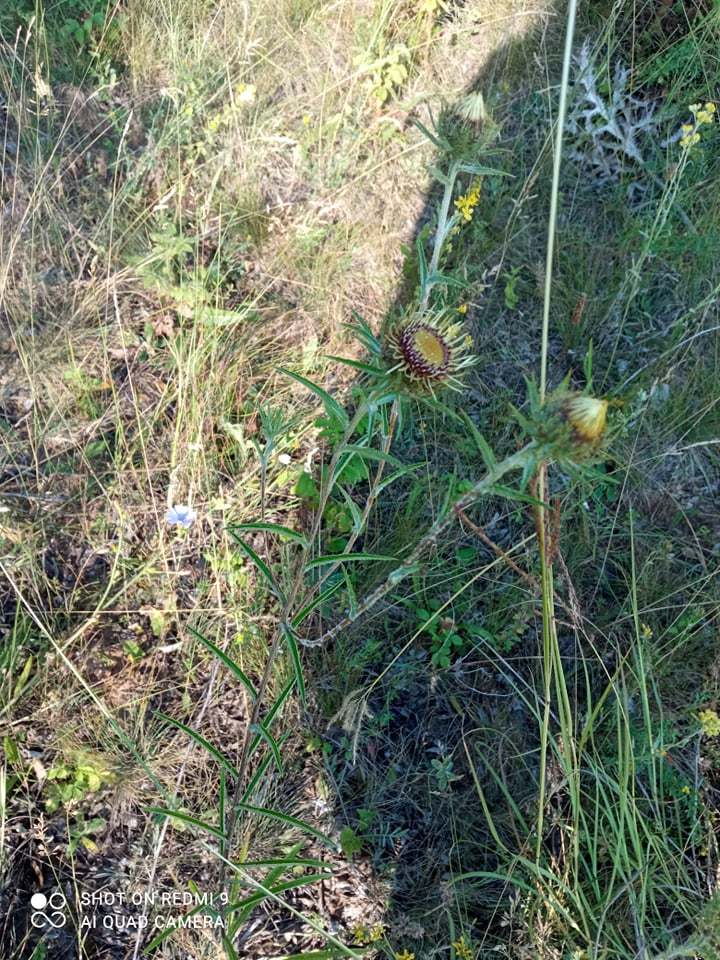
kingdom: Plantae
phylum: Tracheophyta
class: Magnoliopsida
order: Asterales
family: Asteraceae
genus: Carlina
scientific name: Carlina biebersteinii
